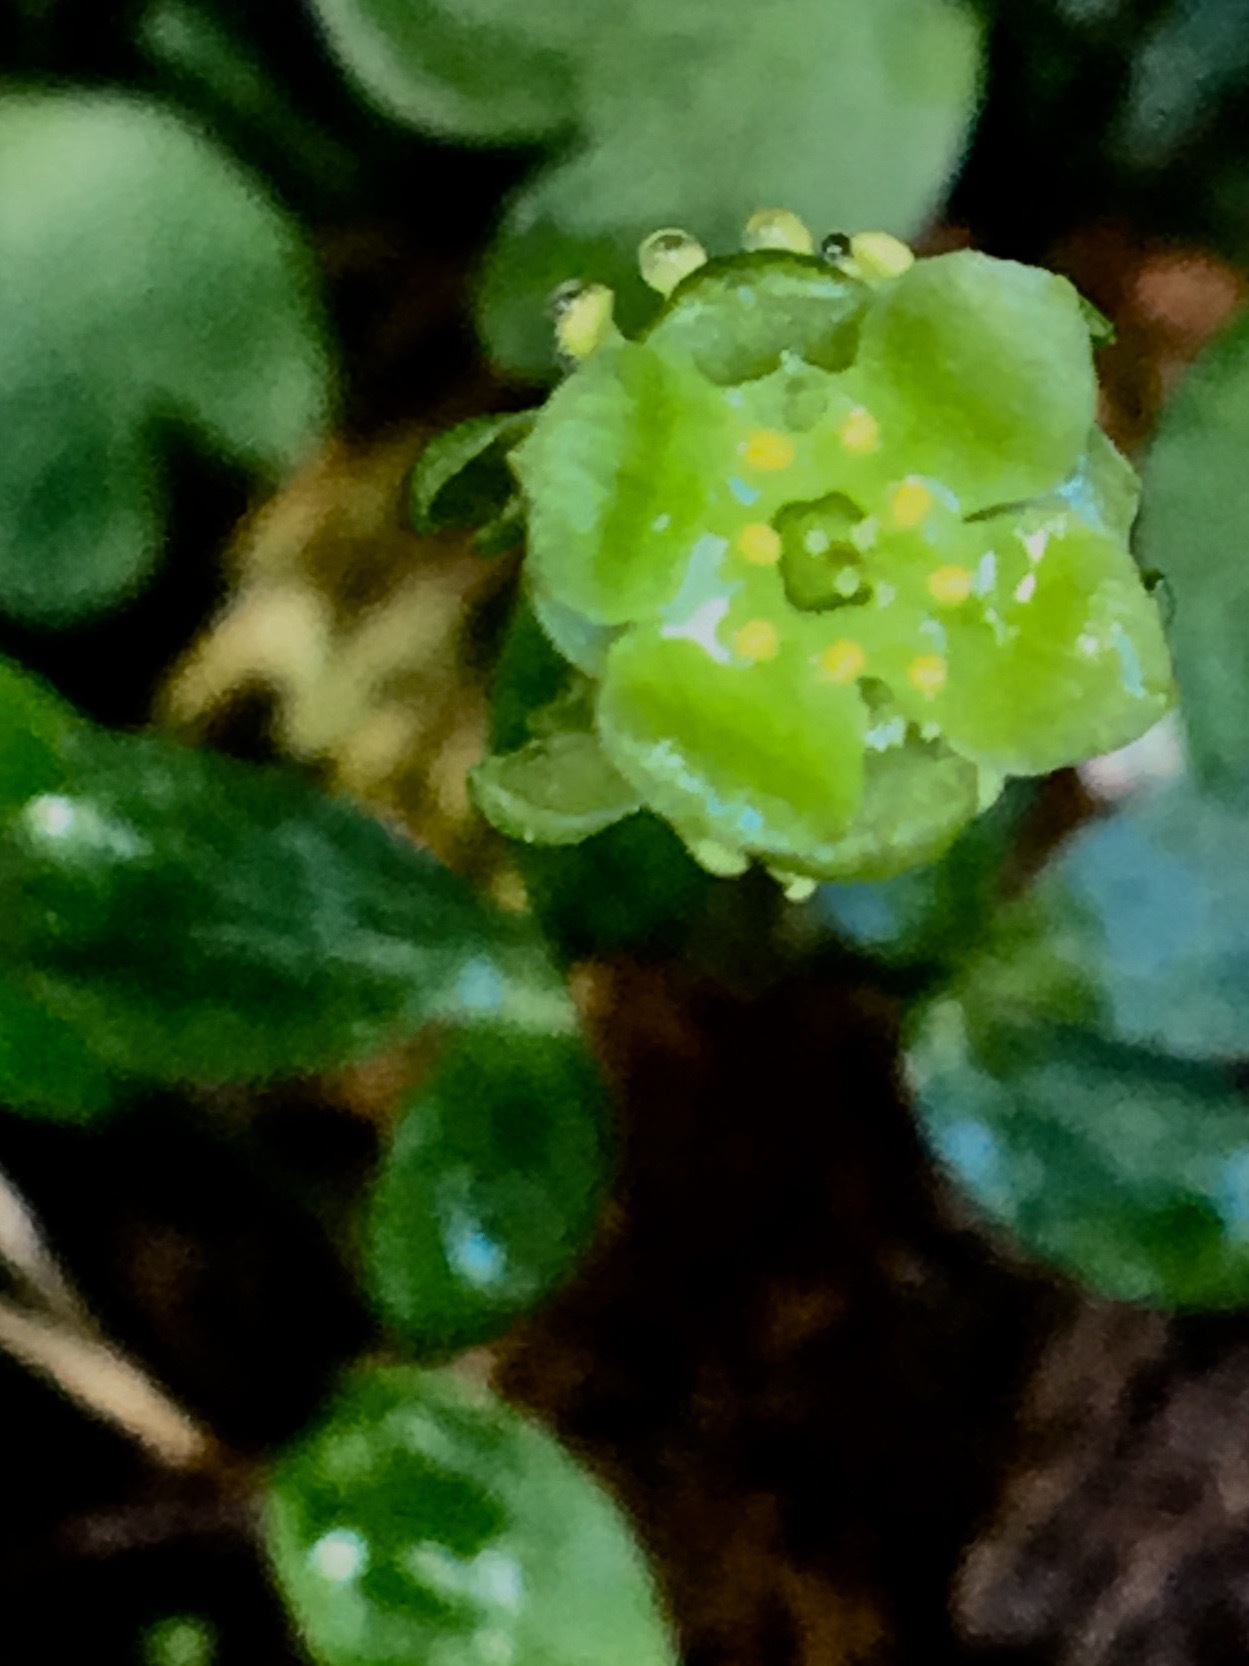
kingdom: Plantae
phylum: Tracheophyta
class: Magnoliopsida
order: Dipsacales
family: Viburnaceae
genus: Adoxa
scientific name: Adoxa moschatellina
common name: Moschatel
